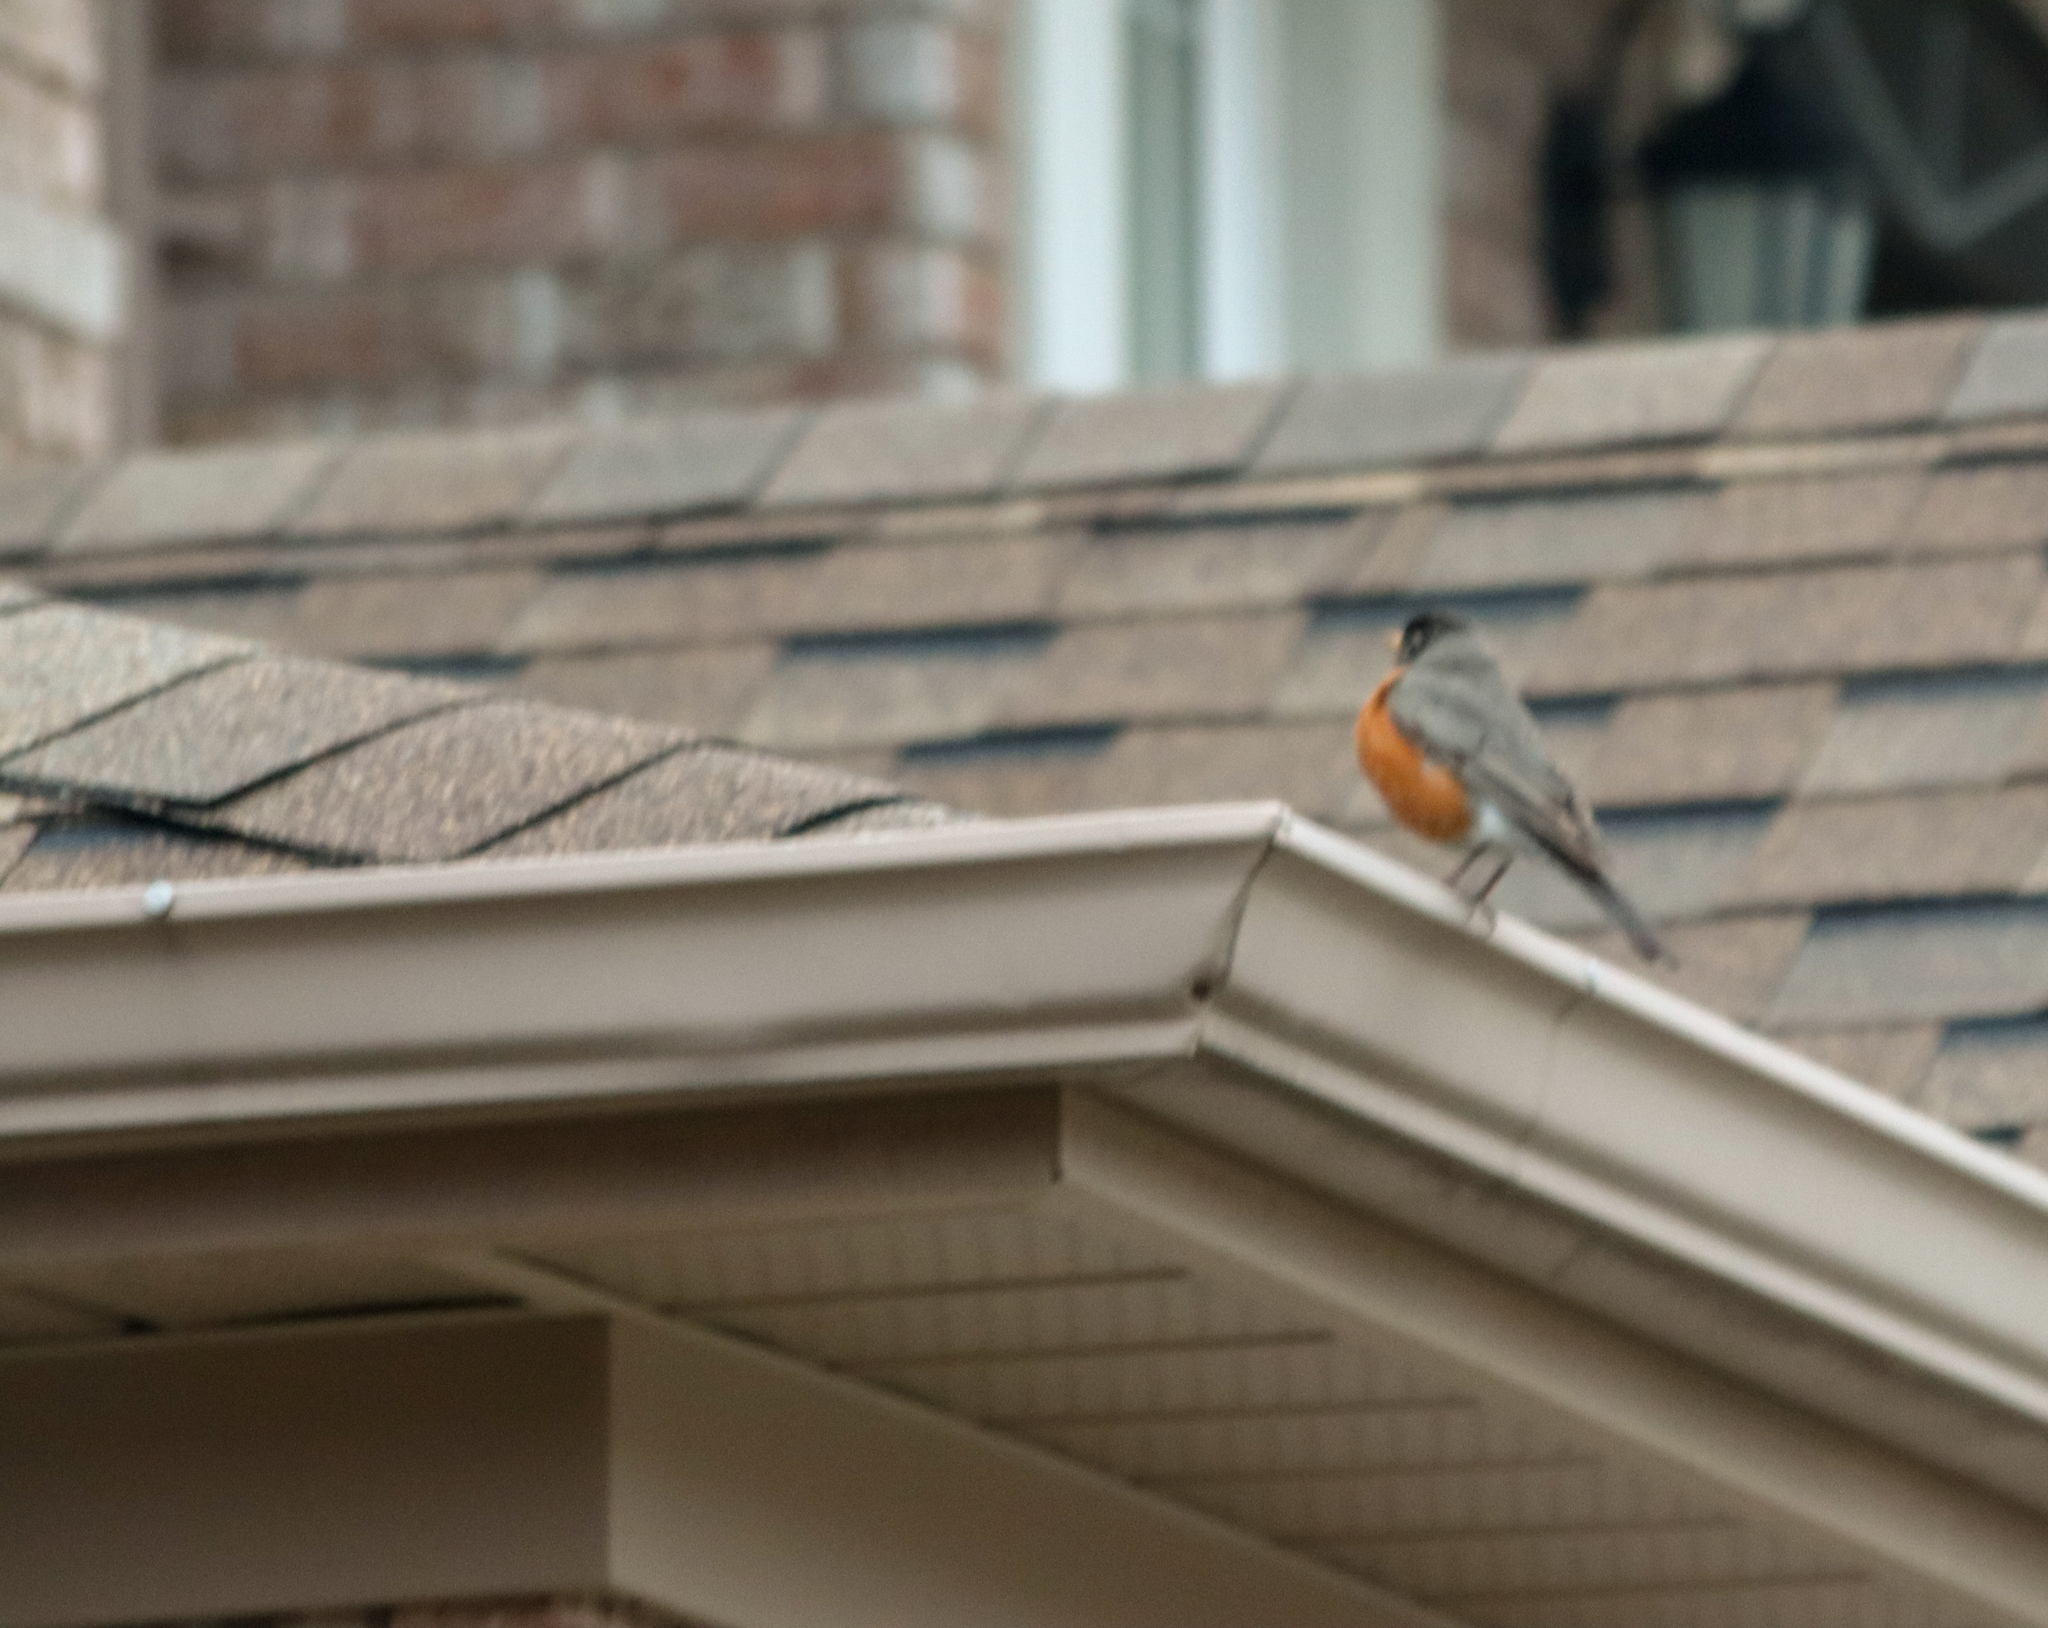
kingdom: Animalia
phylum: Chordata
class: Aves
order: Passeriformes
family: Turdidae
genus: Turdus
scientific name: Turdus migratorius
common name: American robin
